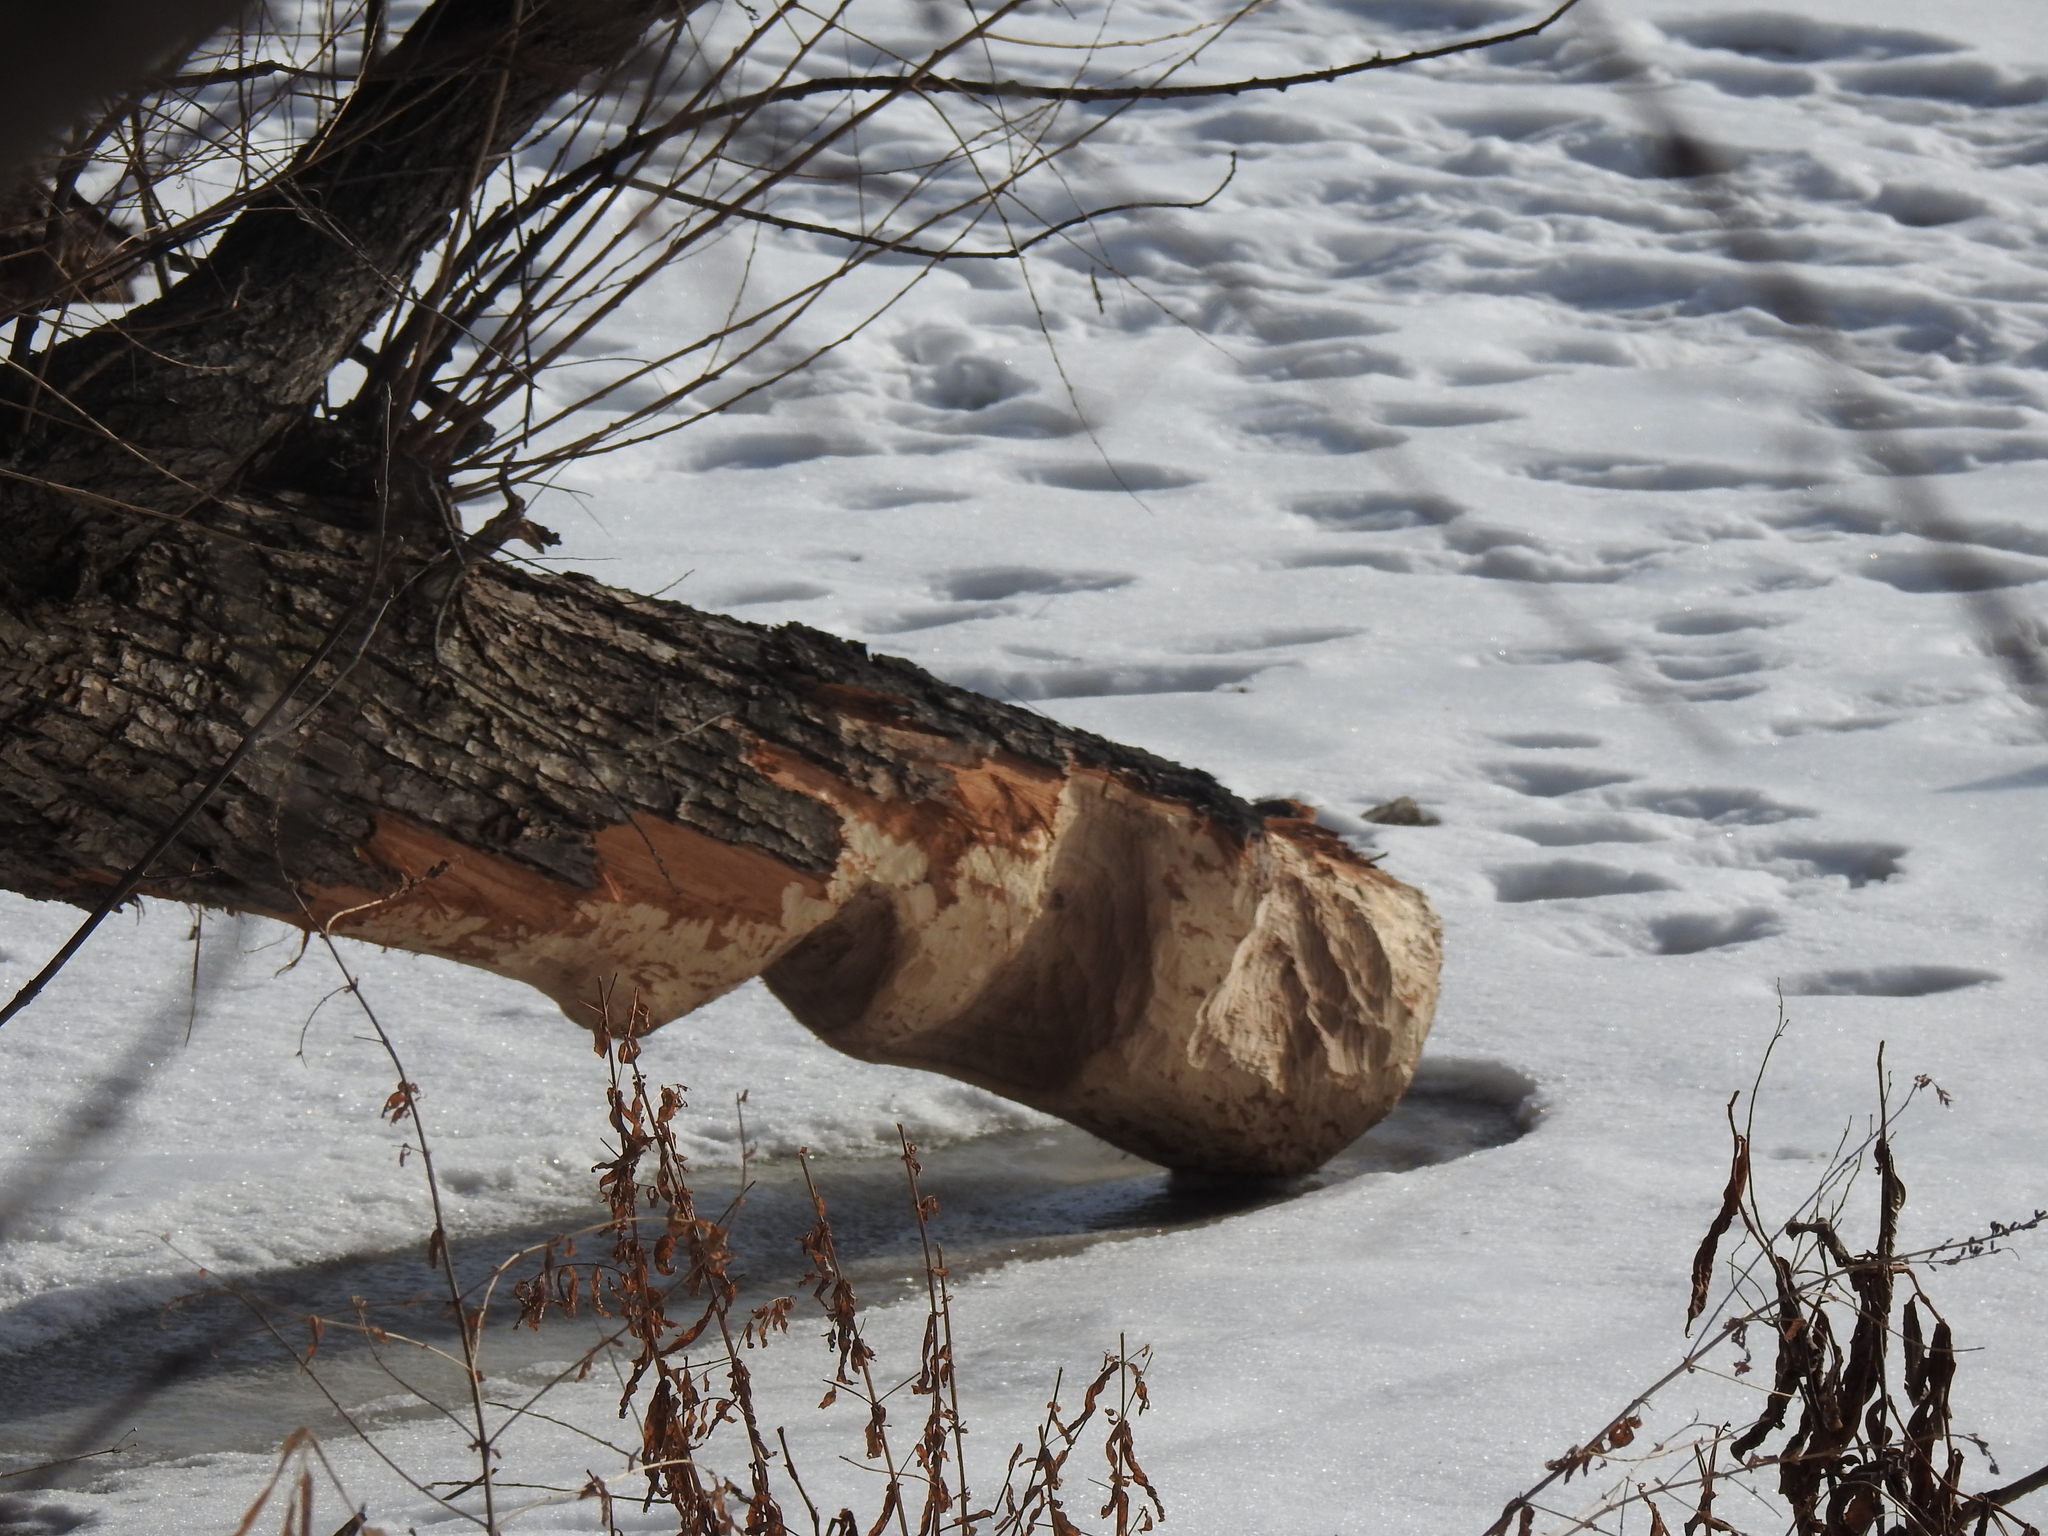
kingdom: Animalia
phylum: Chordata
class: Mammalia
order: Rodentia
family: Castoridae
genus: Castor
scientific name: Castor canadensis
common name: American beaver
